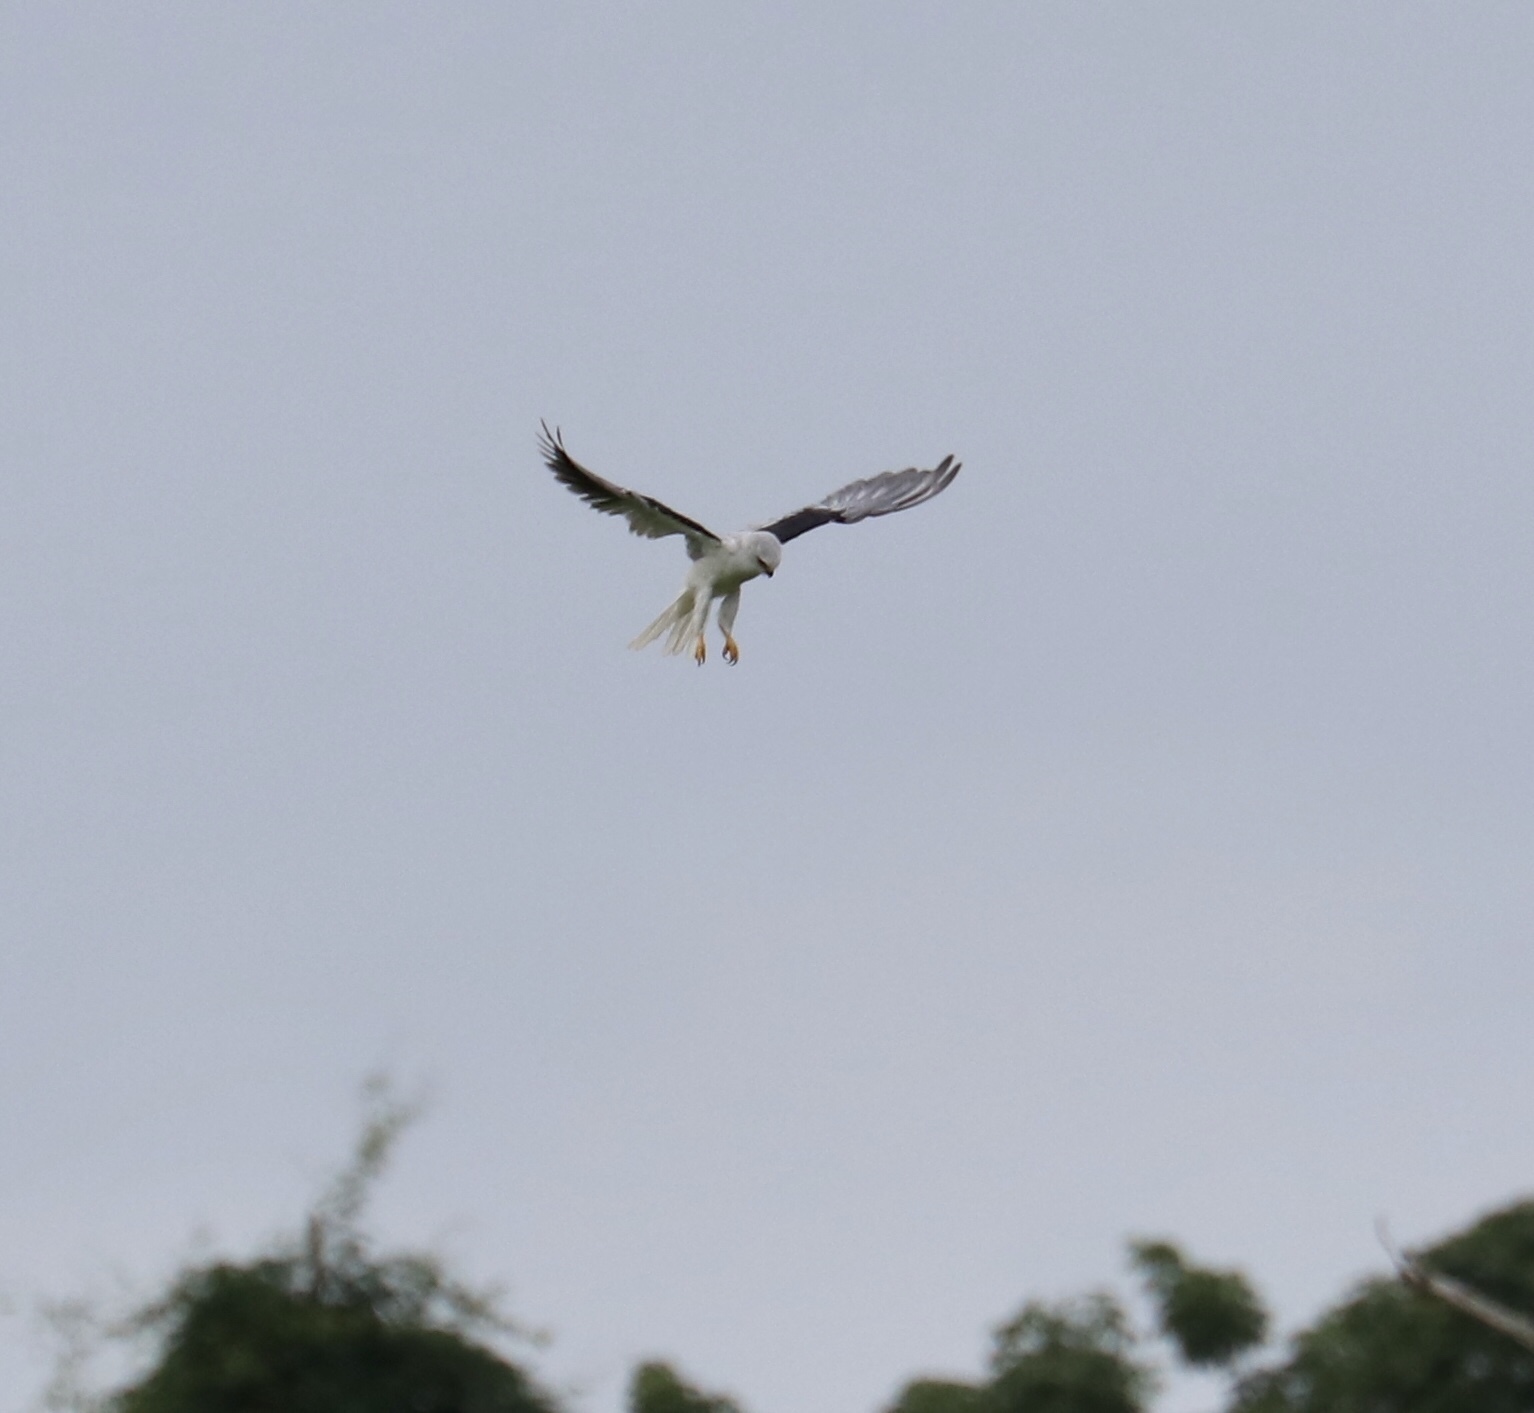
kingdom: Animalia
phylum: Chordata
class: Aves
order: Accipitriformes
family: Accipitridae
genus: Elanus
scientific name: Elanus leucurus
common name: White-tailed kite
